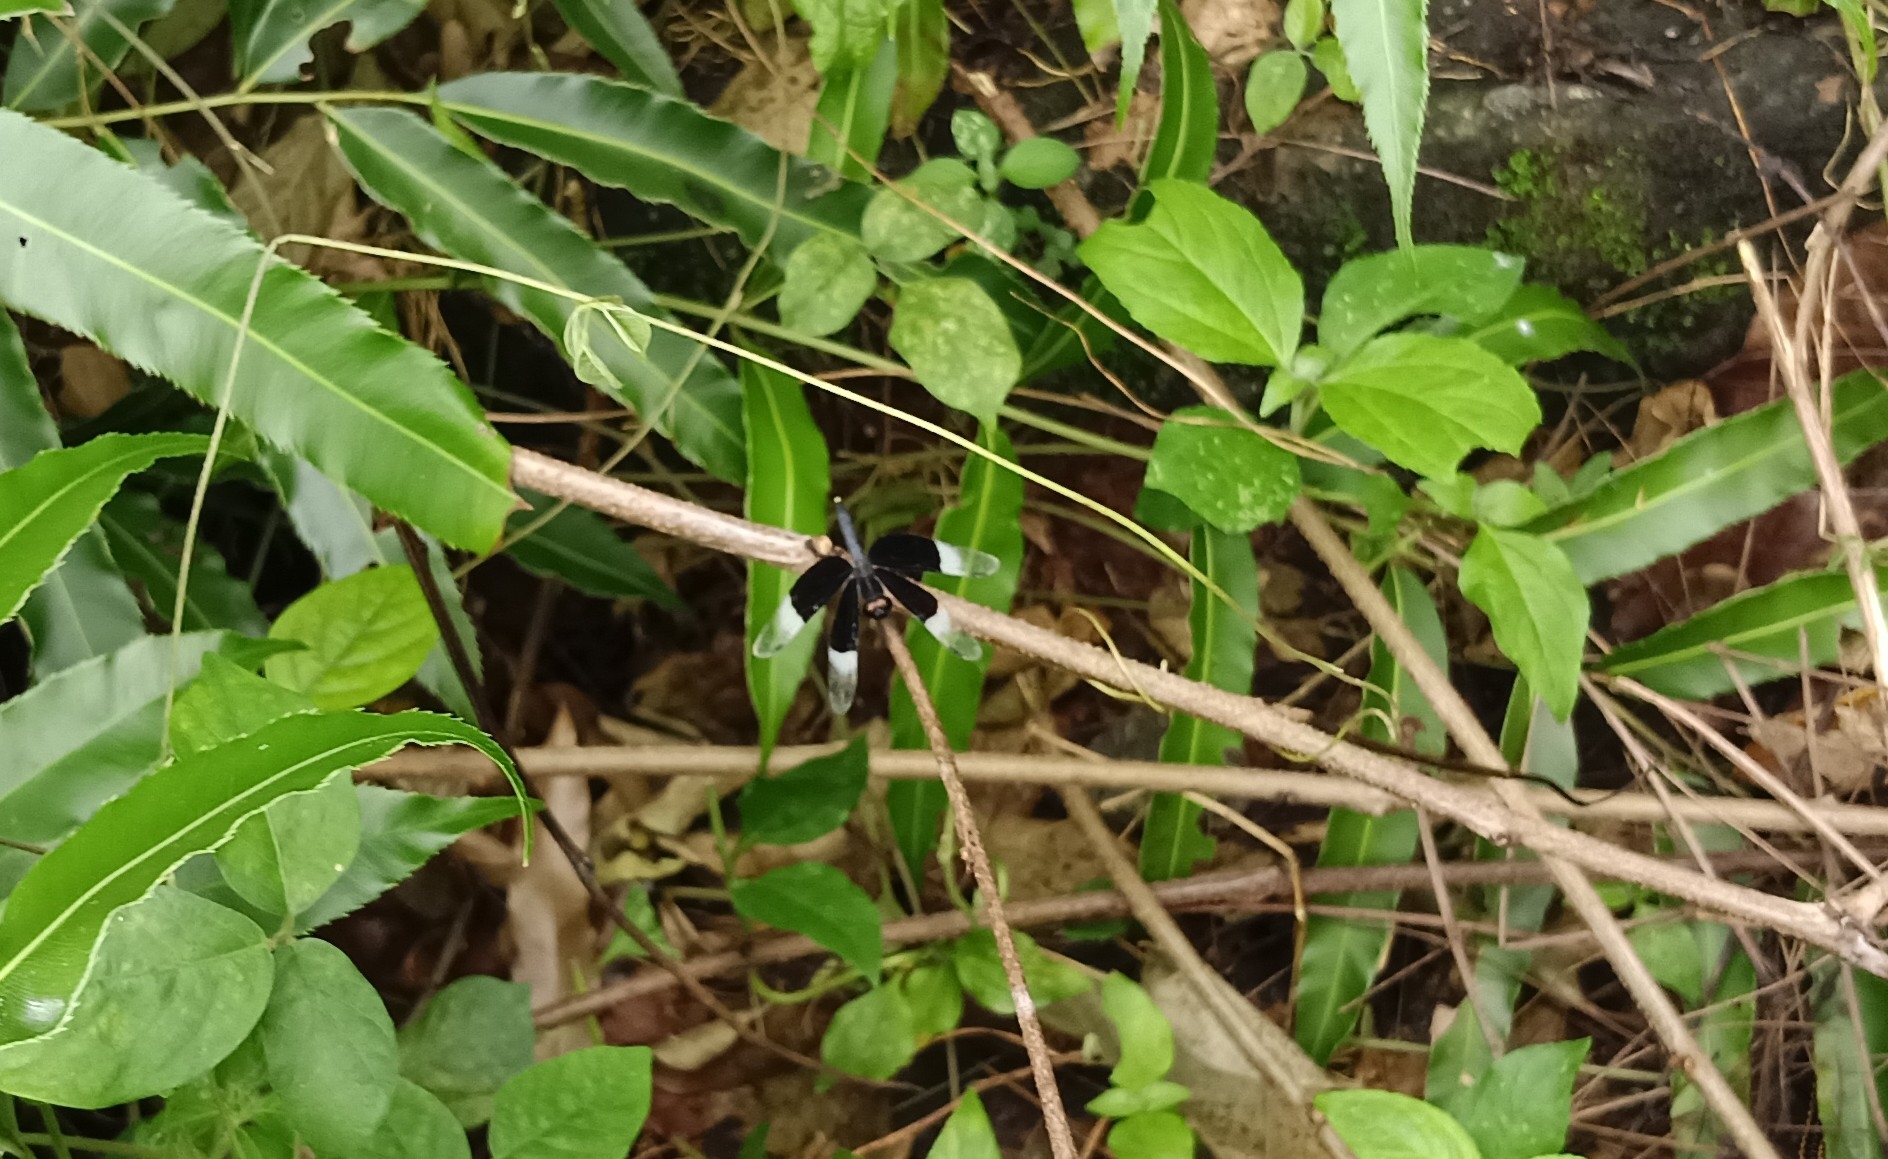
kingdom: Animalia
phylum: Arthropoda
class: Insecta
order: Odonata
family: Libellulidae
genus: Neurothemis
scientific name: Neurothemis tullia
